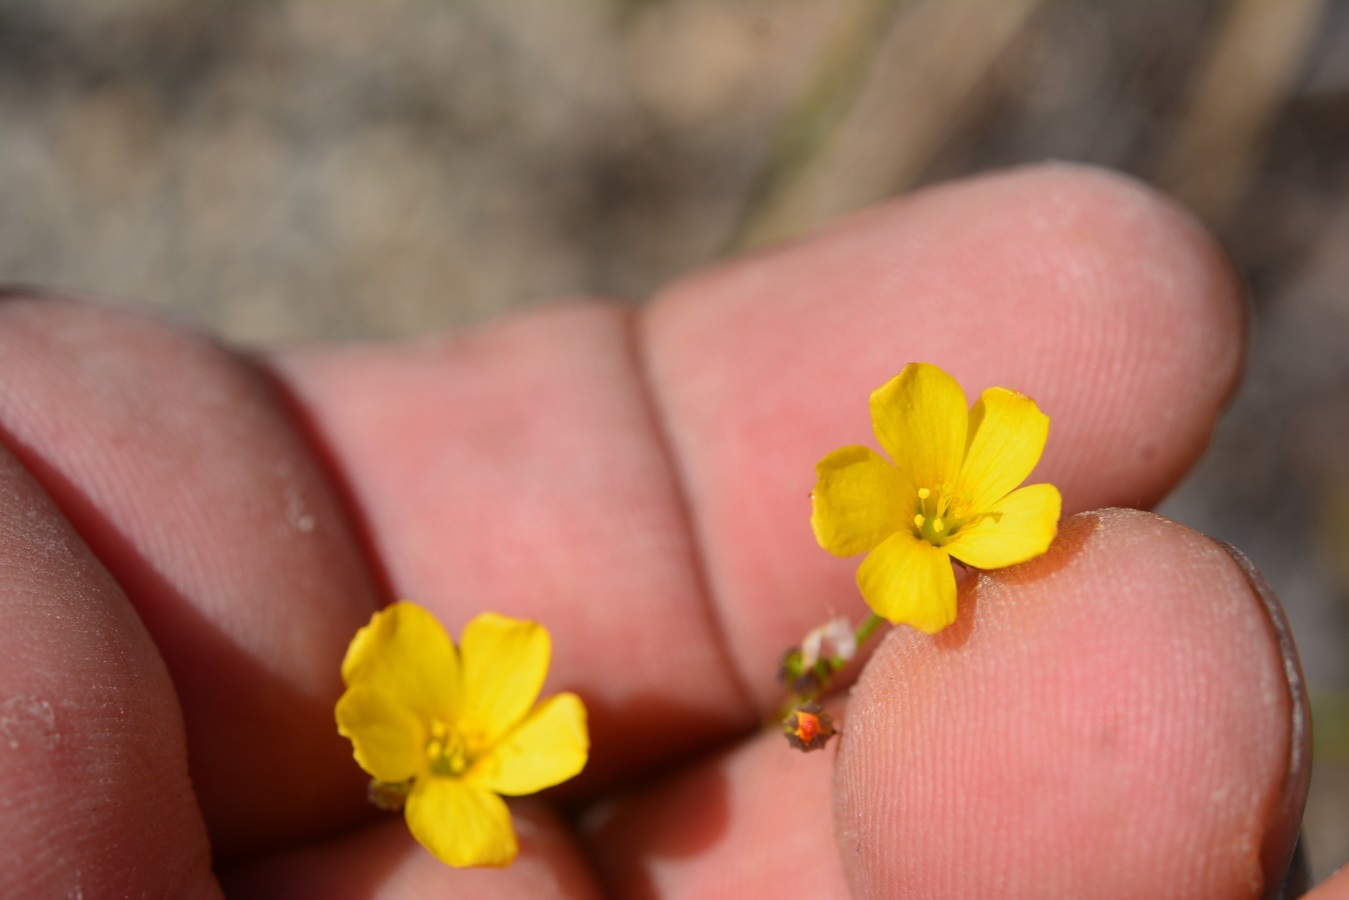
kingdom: Plantae
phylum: Tracheophyta
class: Magnoliopsida
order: Malpighiales
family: Linaceae
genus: Linum
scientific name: Linum rupestre
